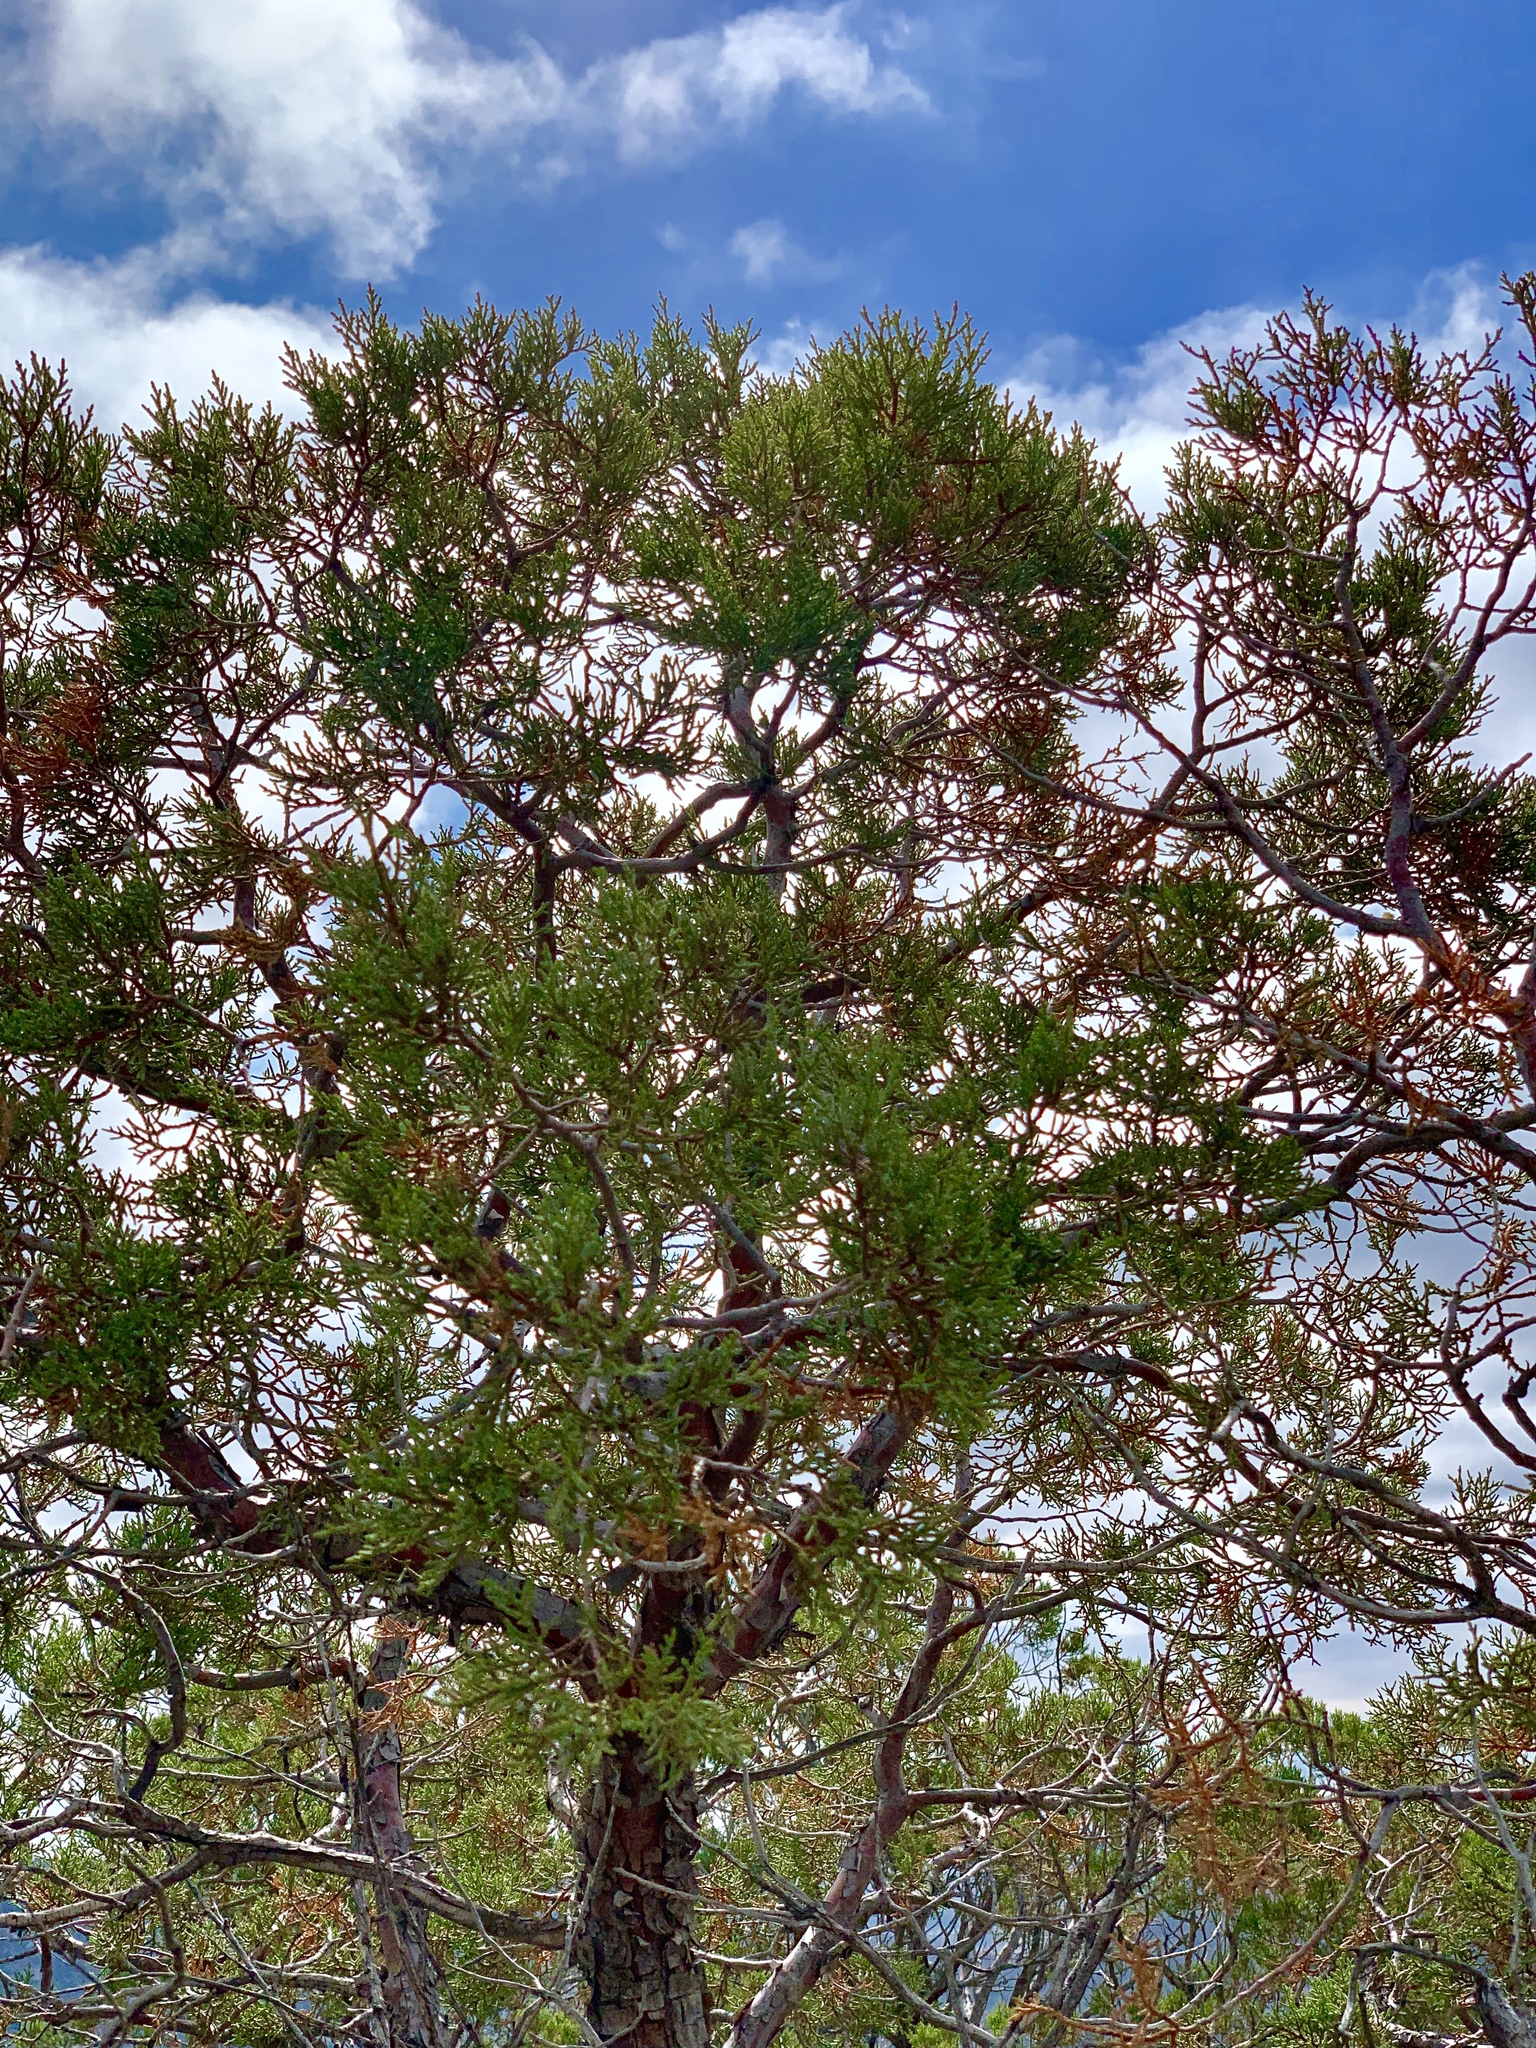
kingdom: Plantae
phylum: Tracheophyta
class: Pinopsida
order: Pinales
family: Cupressaceae
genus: Juniperus
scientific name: Juniperus deppeana
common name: Alligator juniper
